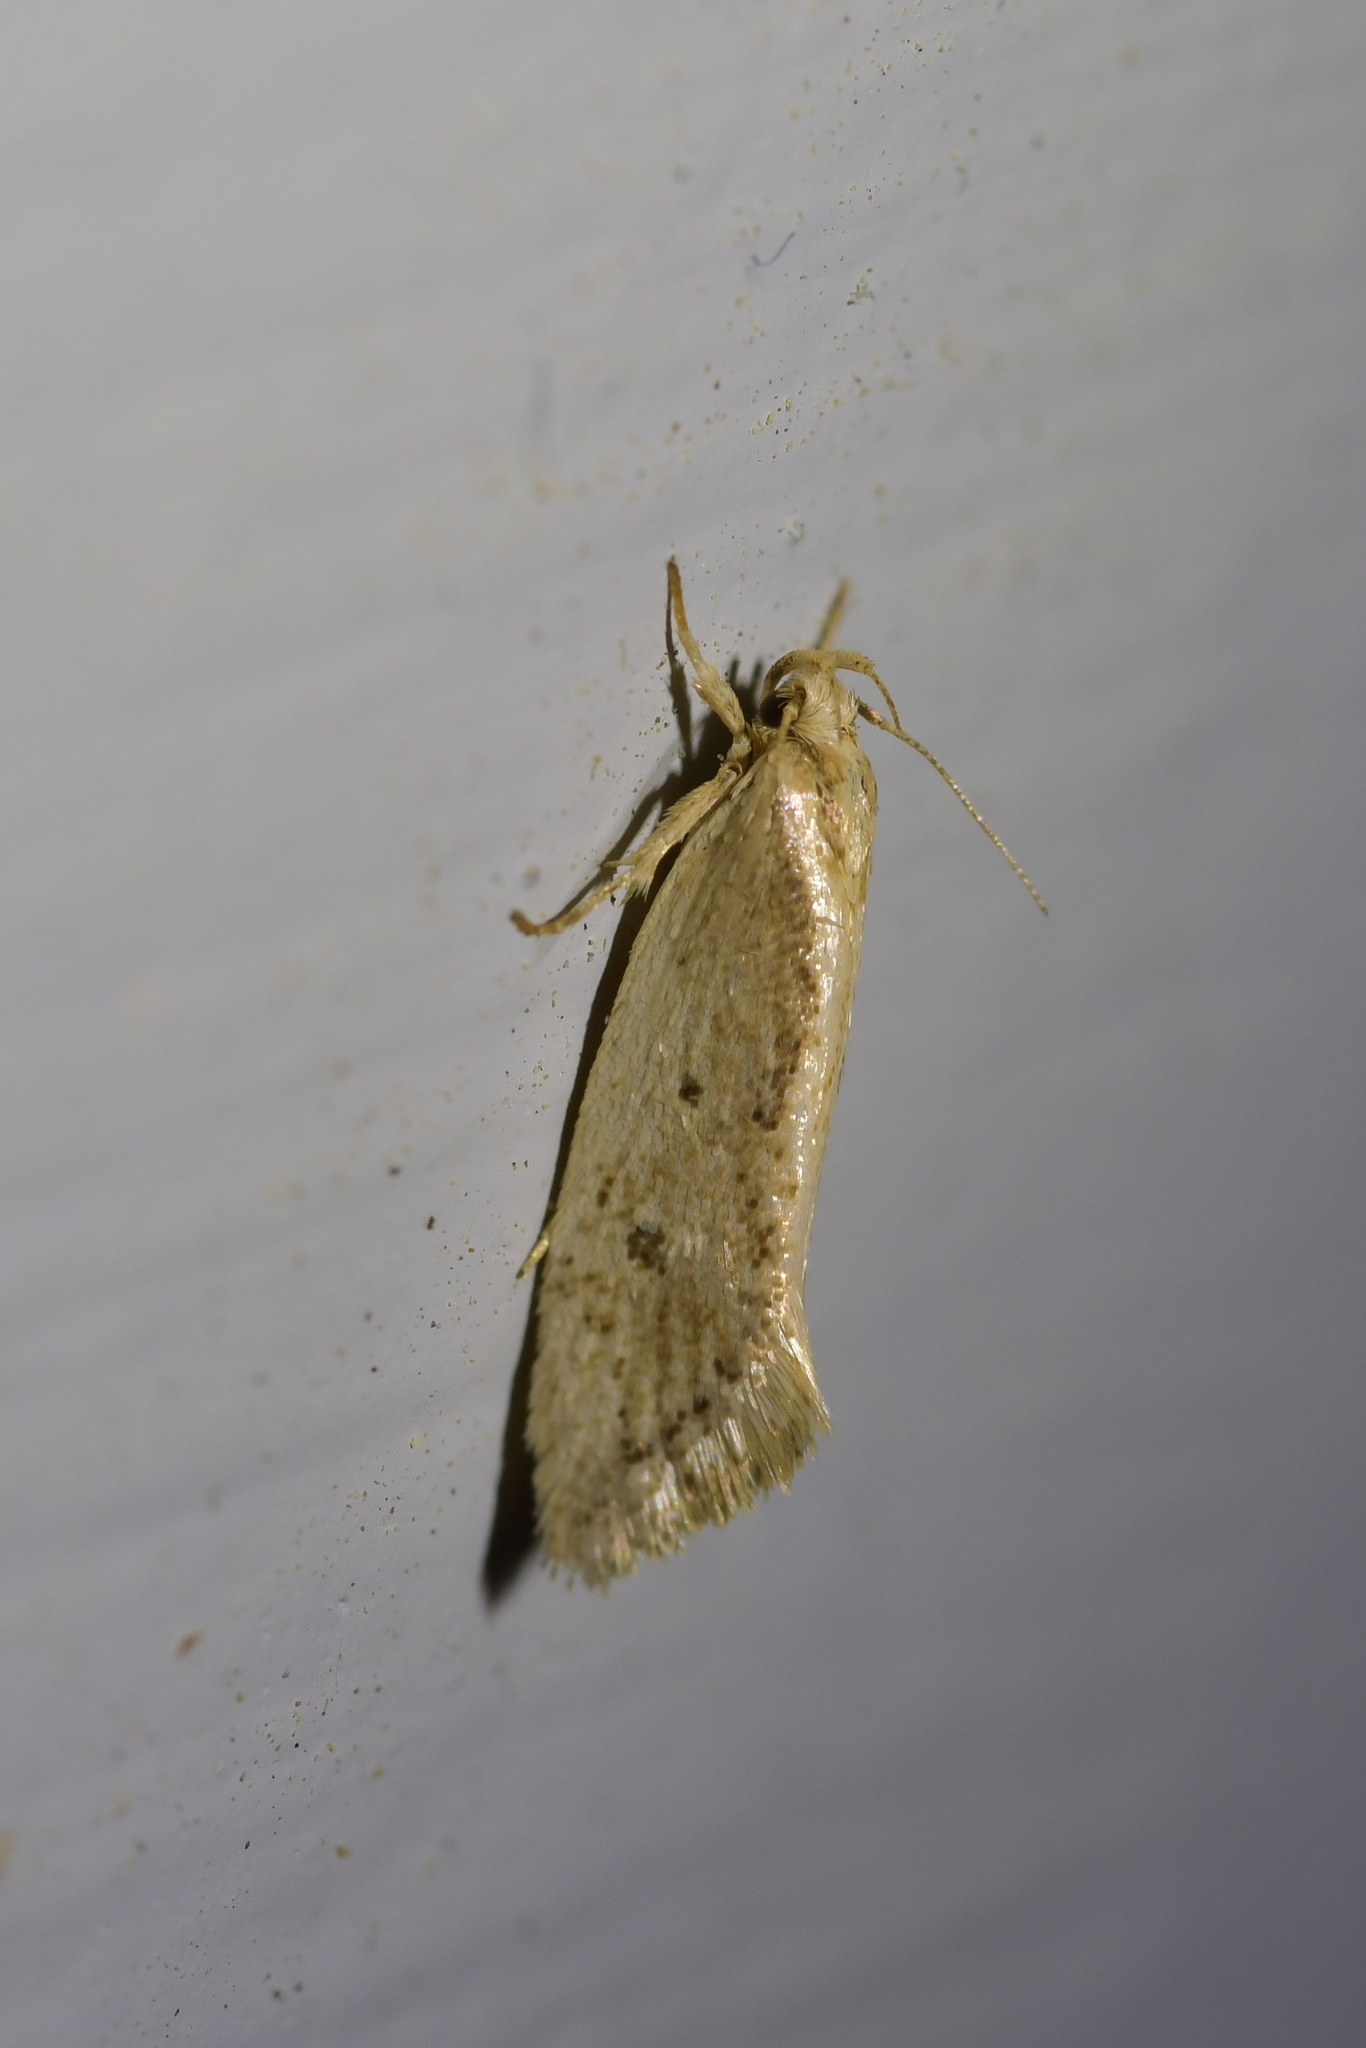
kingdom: Animalia
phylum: Arthropoda
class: Insecta
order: Lepidoptera
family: Oecophoridae
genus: Tingena
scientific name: Tingena chloradelpha
